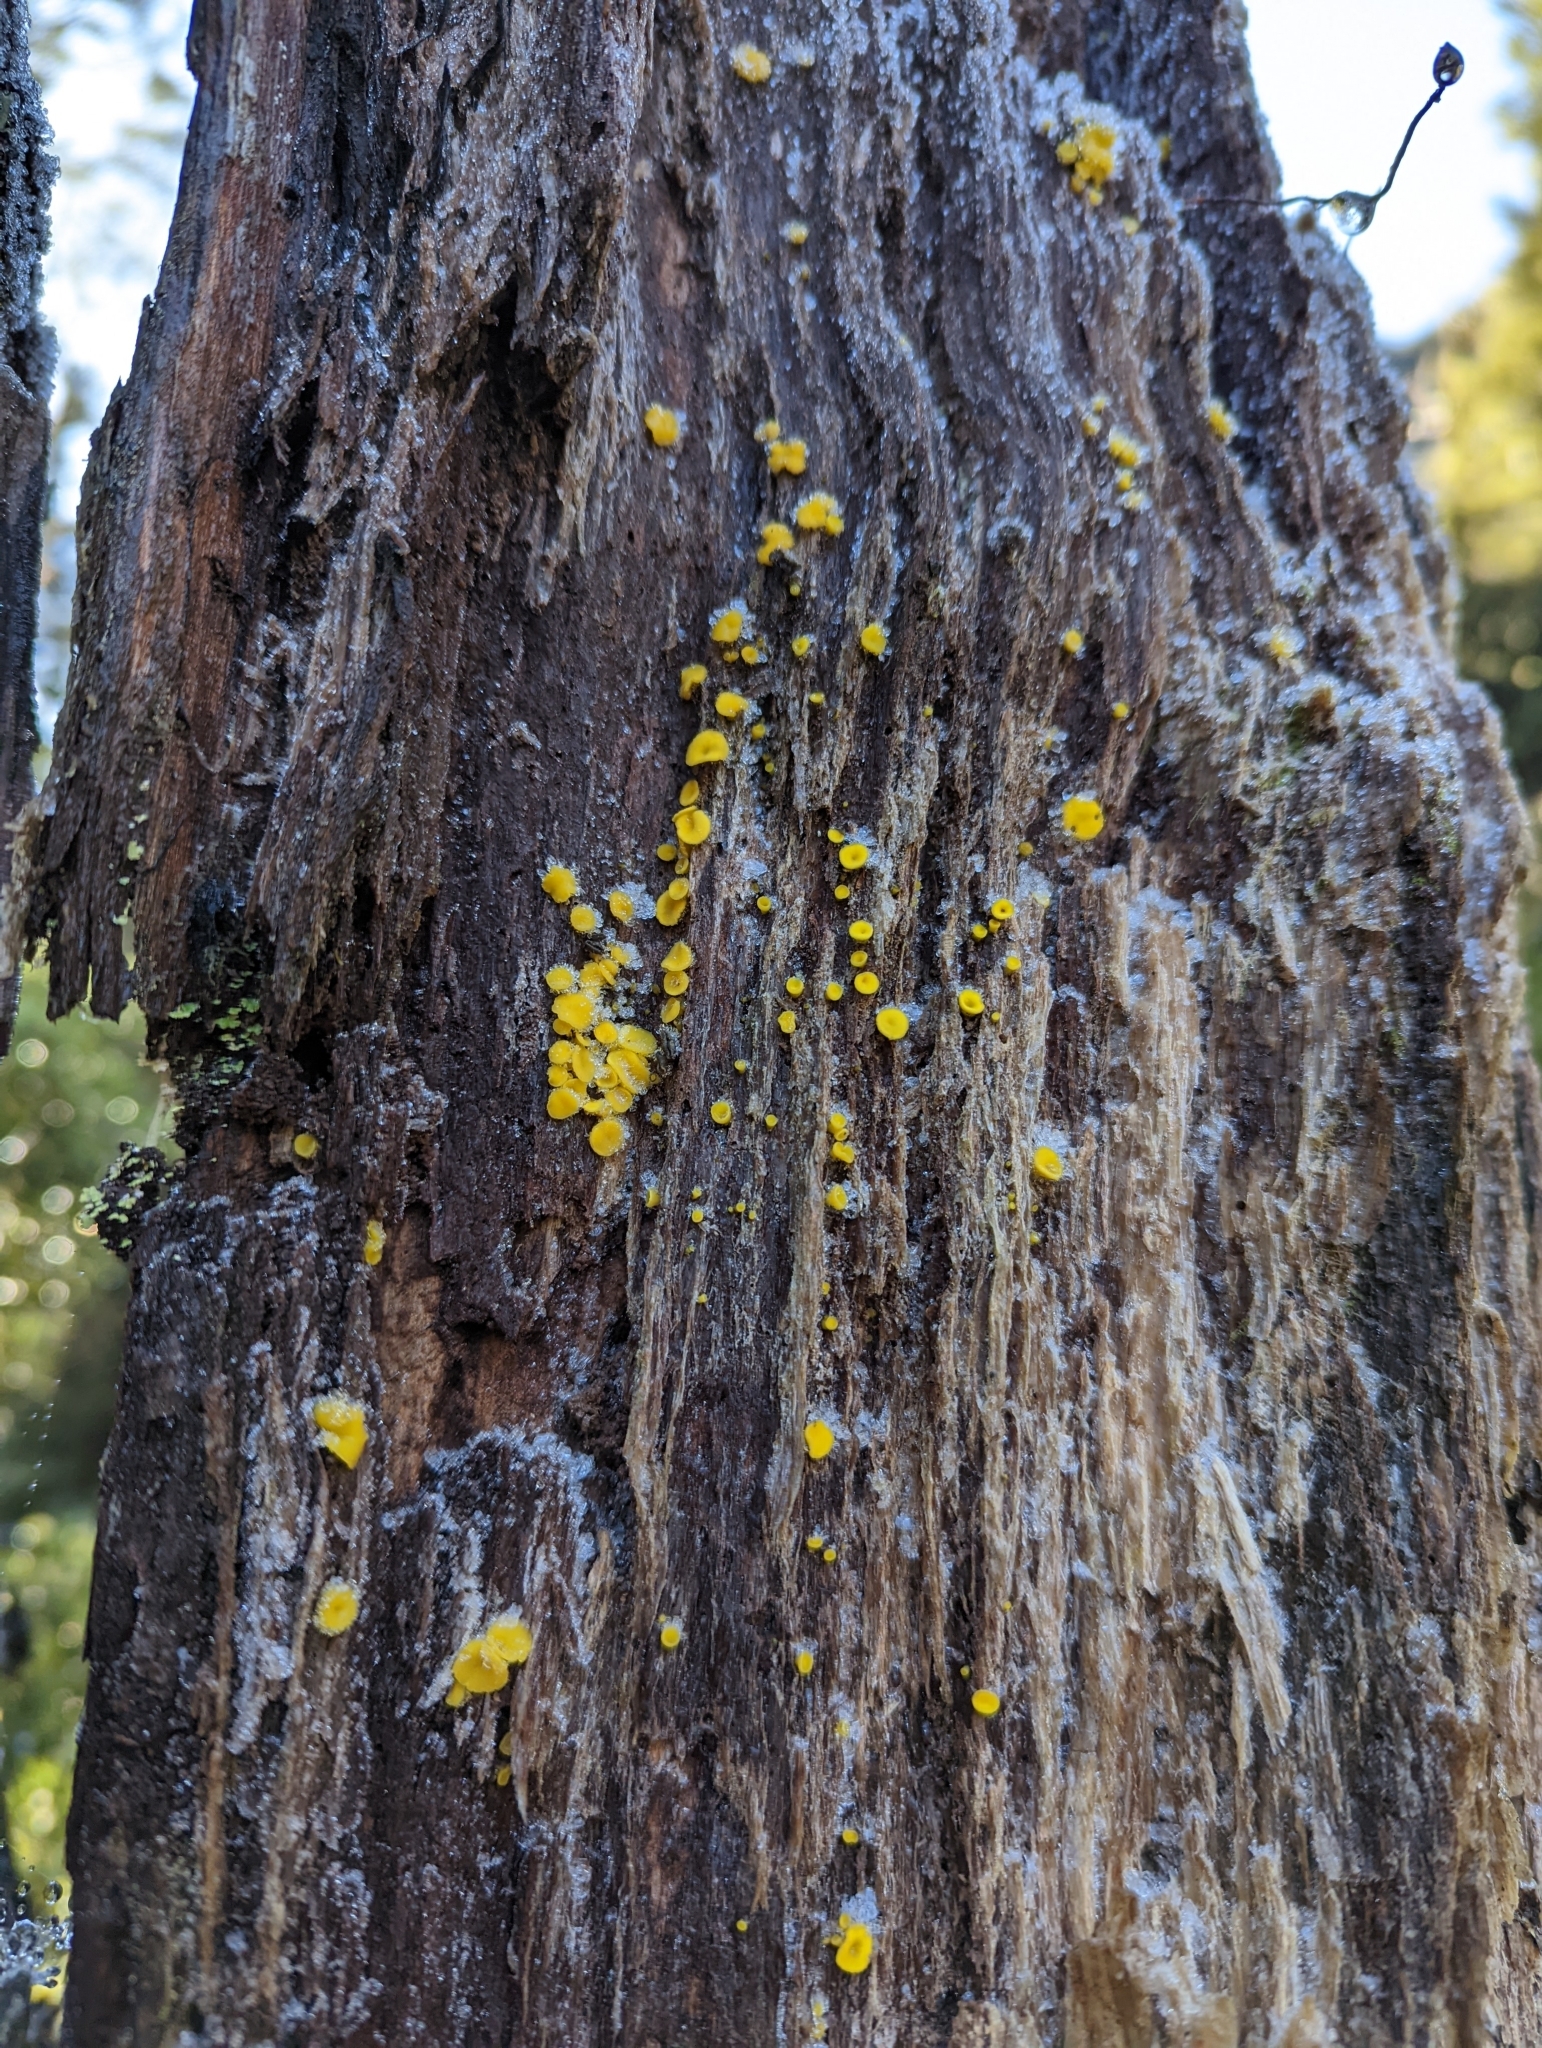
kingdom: Fungi
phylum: Ascomycota
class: Leotiomycetes
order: Helotiales
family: Pezizellaceae
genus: Calycina
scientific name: Calycina citrina
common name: Yellow fairy cups
